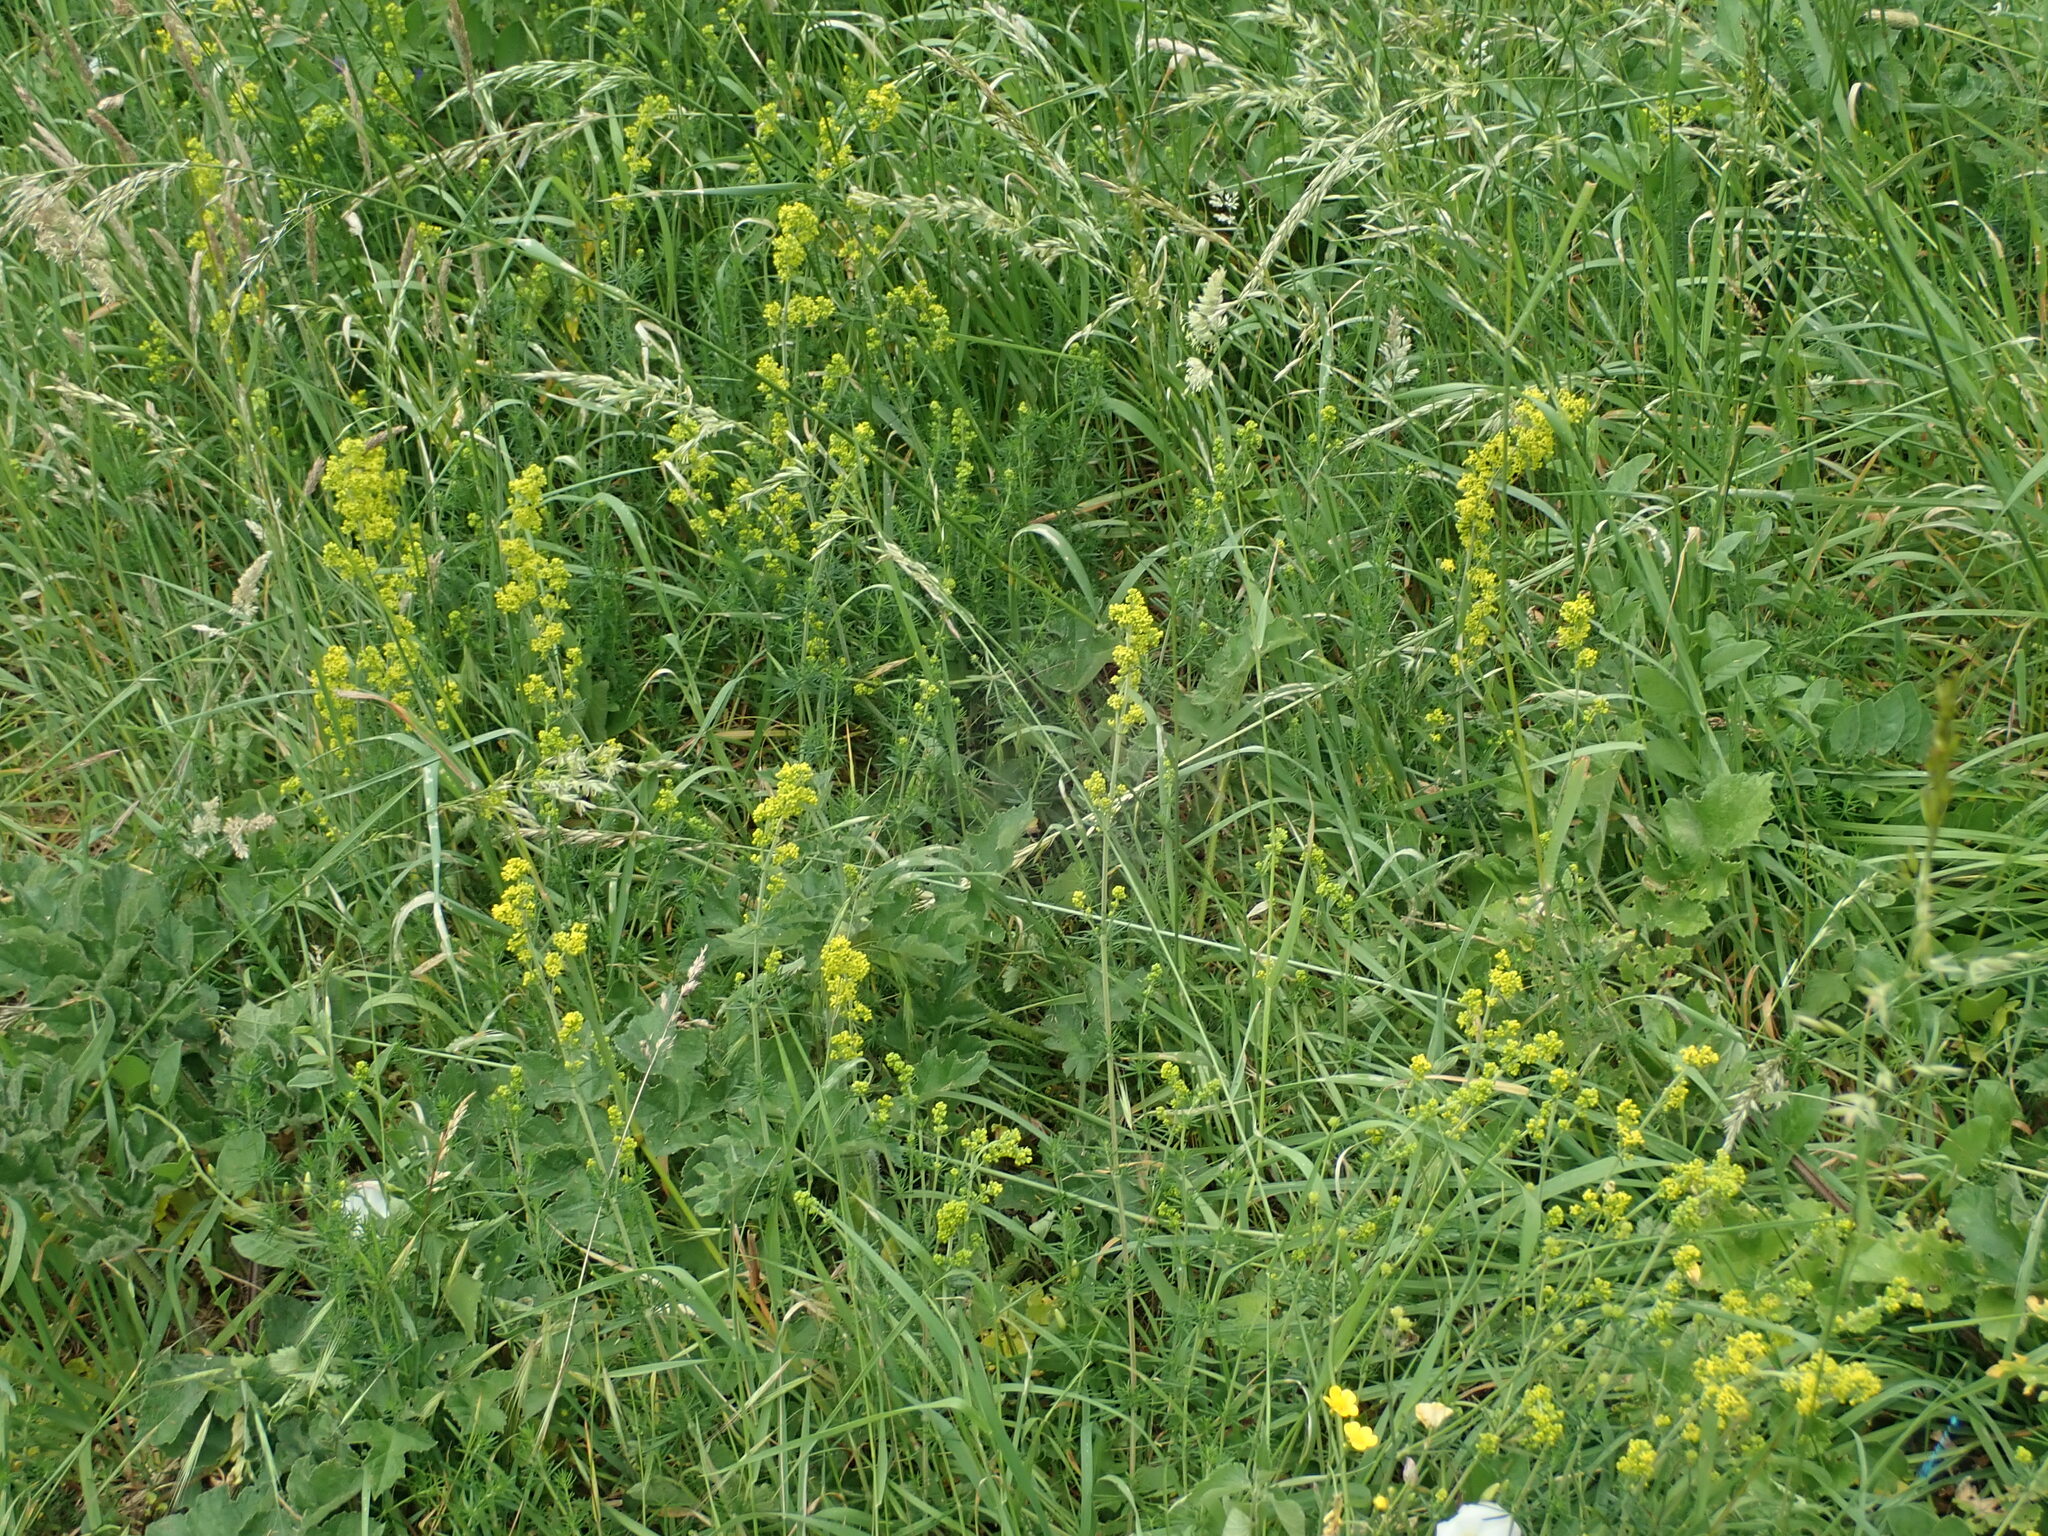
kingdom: Plantae
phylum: Tracheophyta
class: Magnoliopsida
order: Gentianales
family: Rubiaceae
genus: Galium
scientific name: Galium verum
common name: Lady's bedstraw
